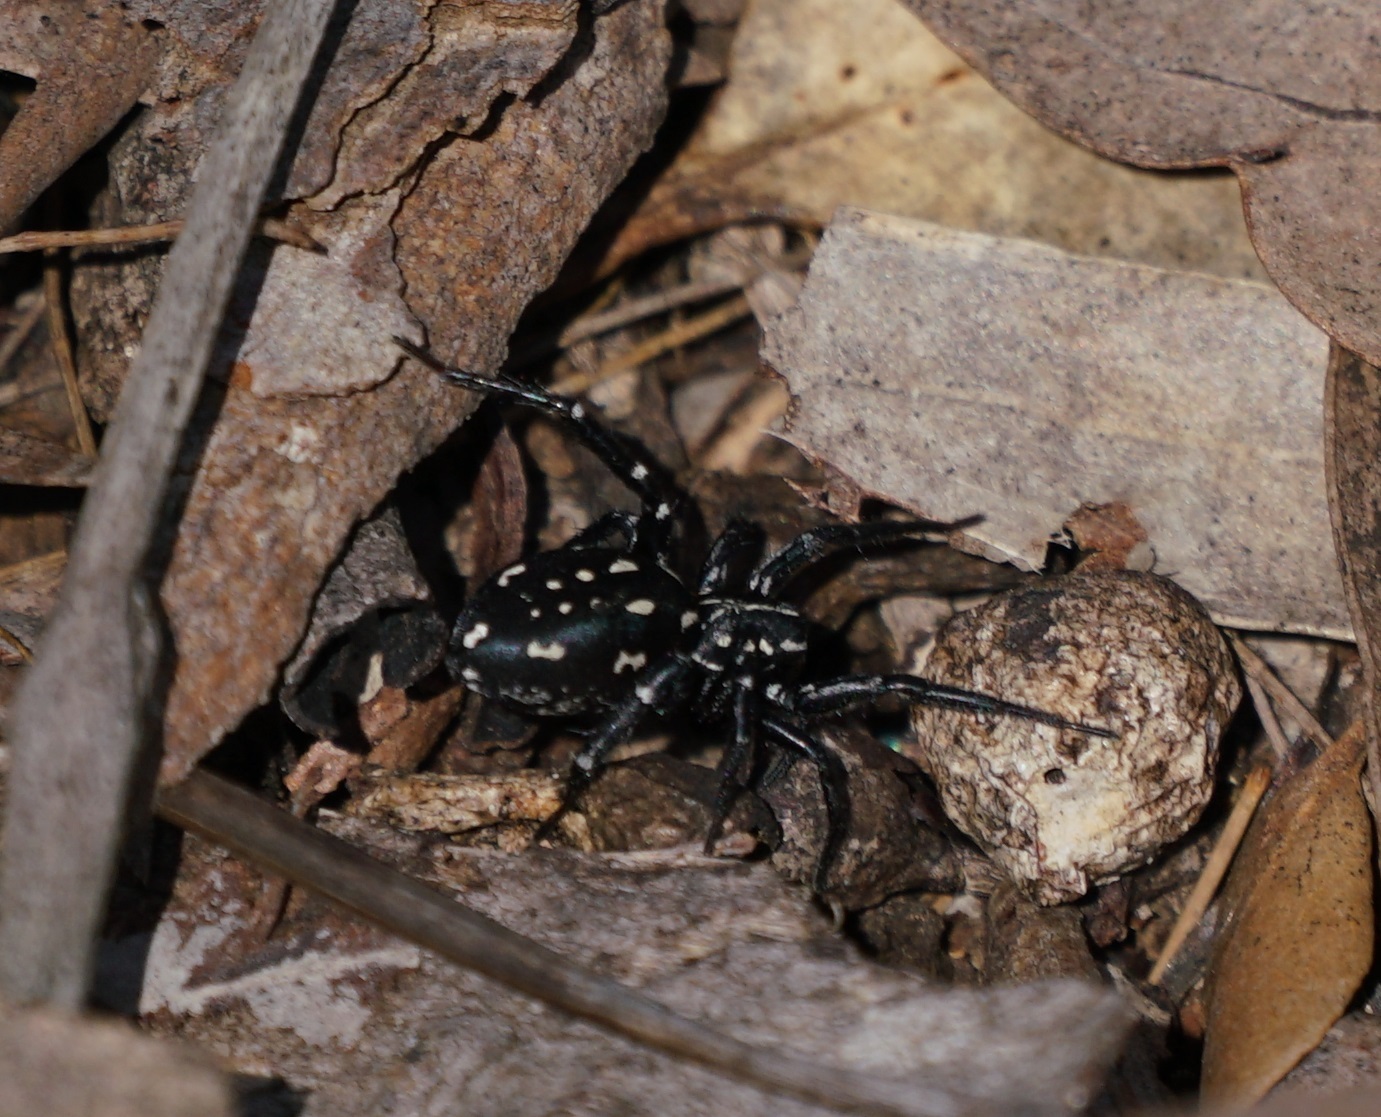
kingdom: Animalia
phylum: Arthropoda
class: Arachnida
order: Araneae
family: Corinnidae
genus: Nyssus
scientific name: Nyssus albopunctatus
